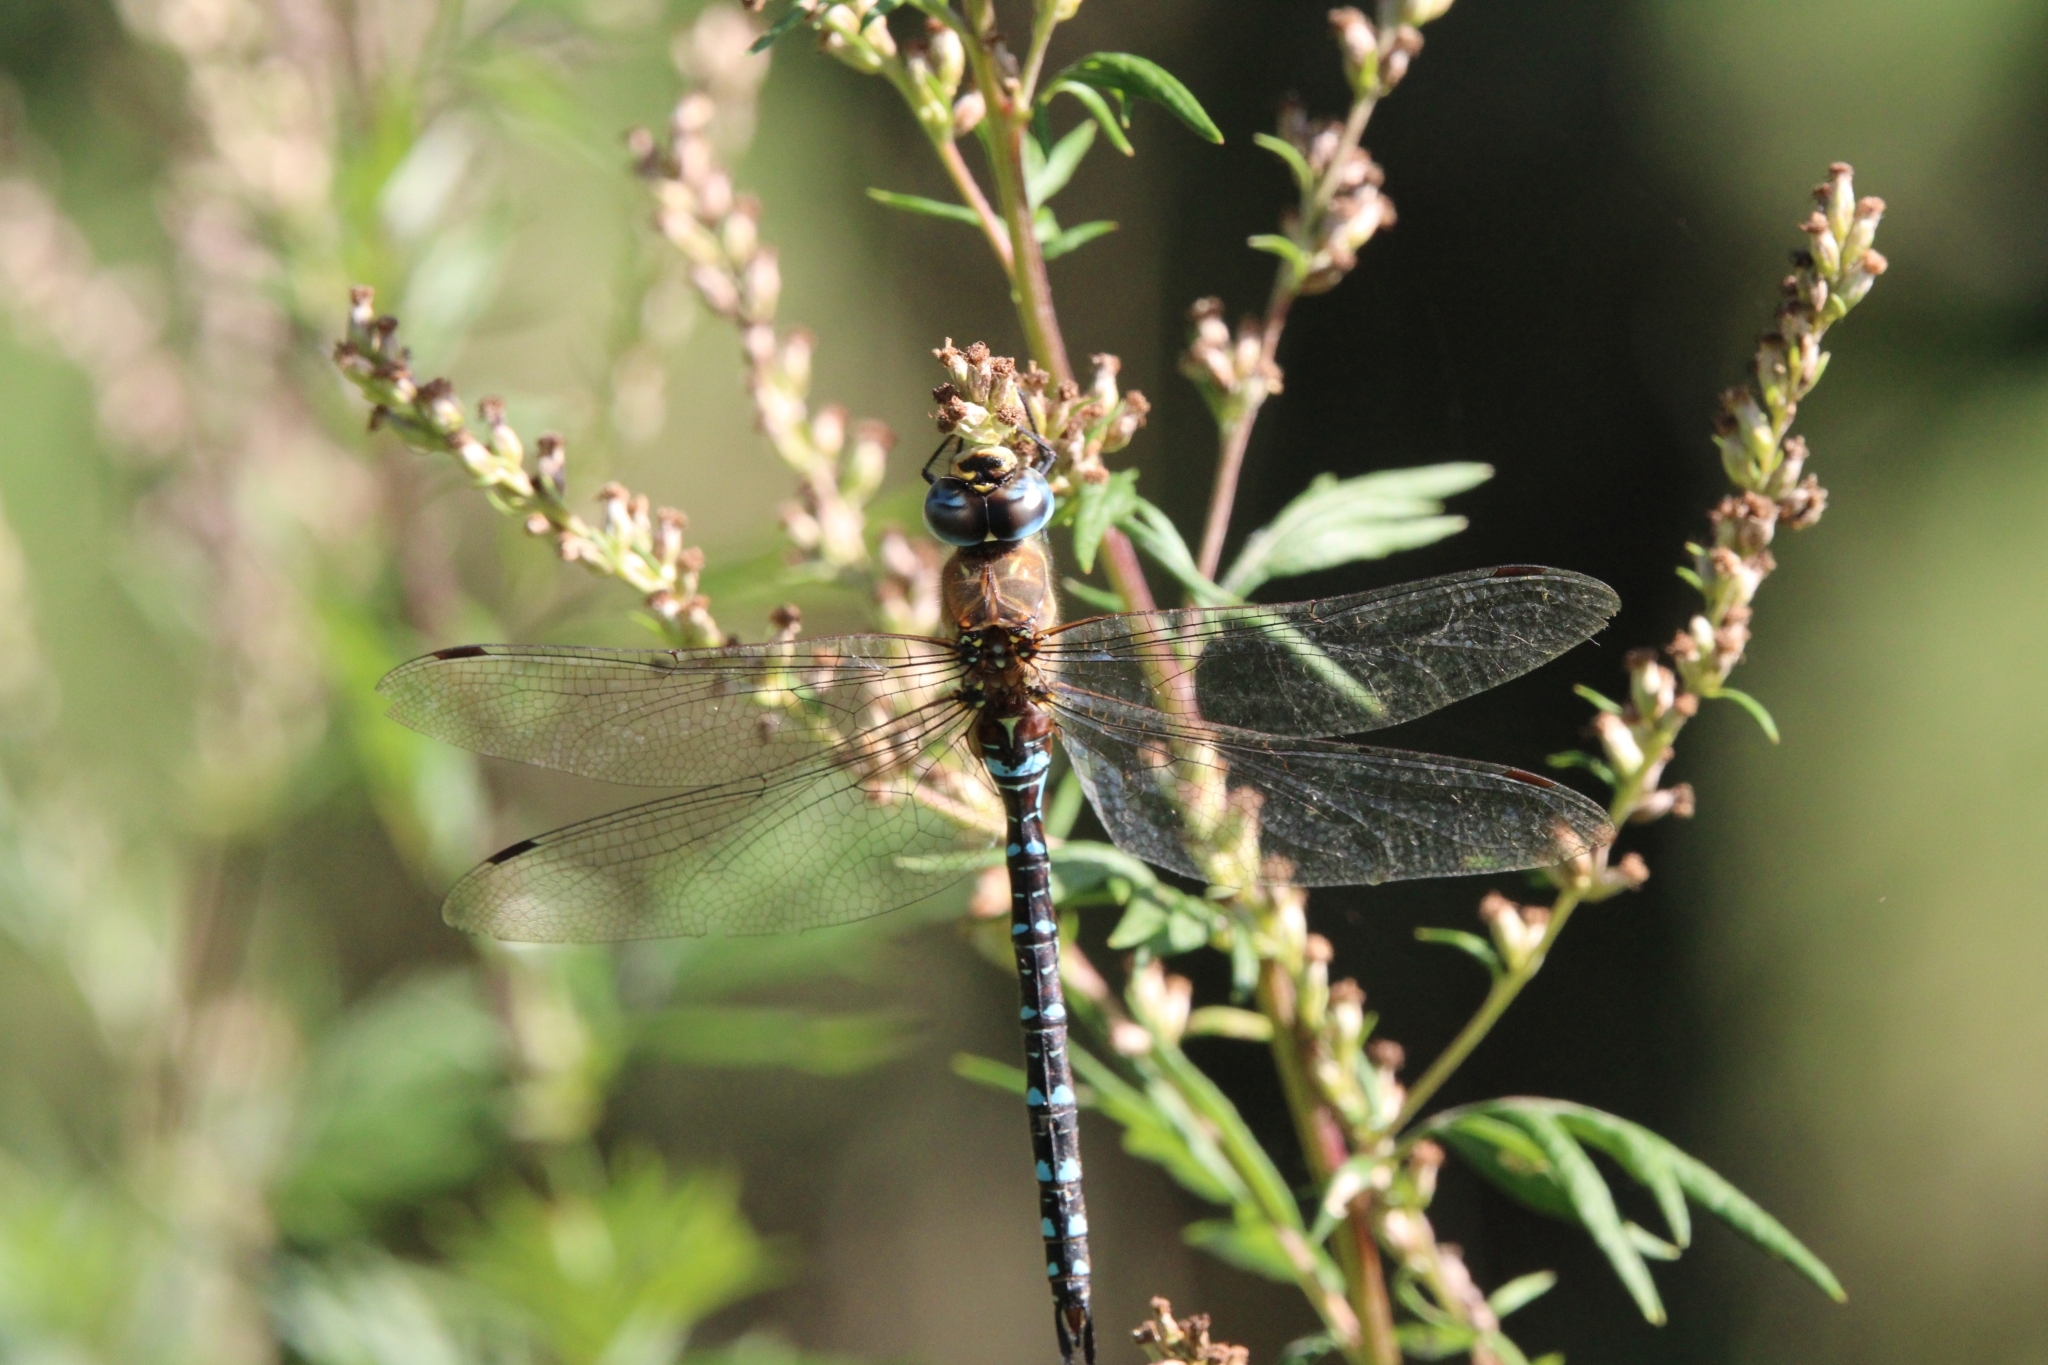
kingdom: Animalia
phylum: Arthropoda
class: Insecta
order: Odonata
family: Aeshnidae
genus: Aeshna
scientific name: Aeshna mixta
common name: Migrant hawker
